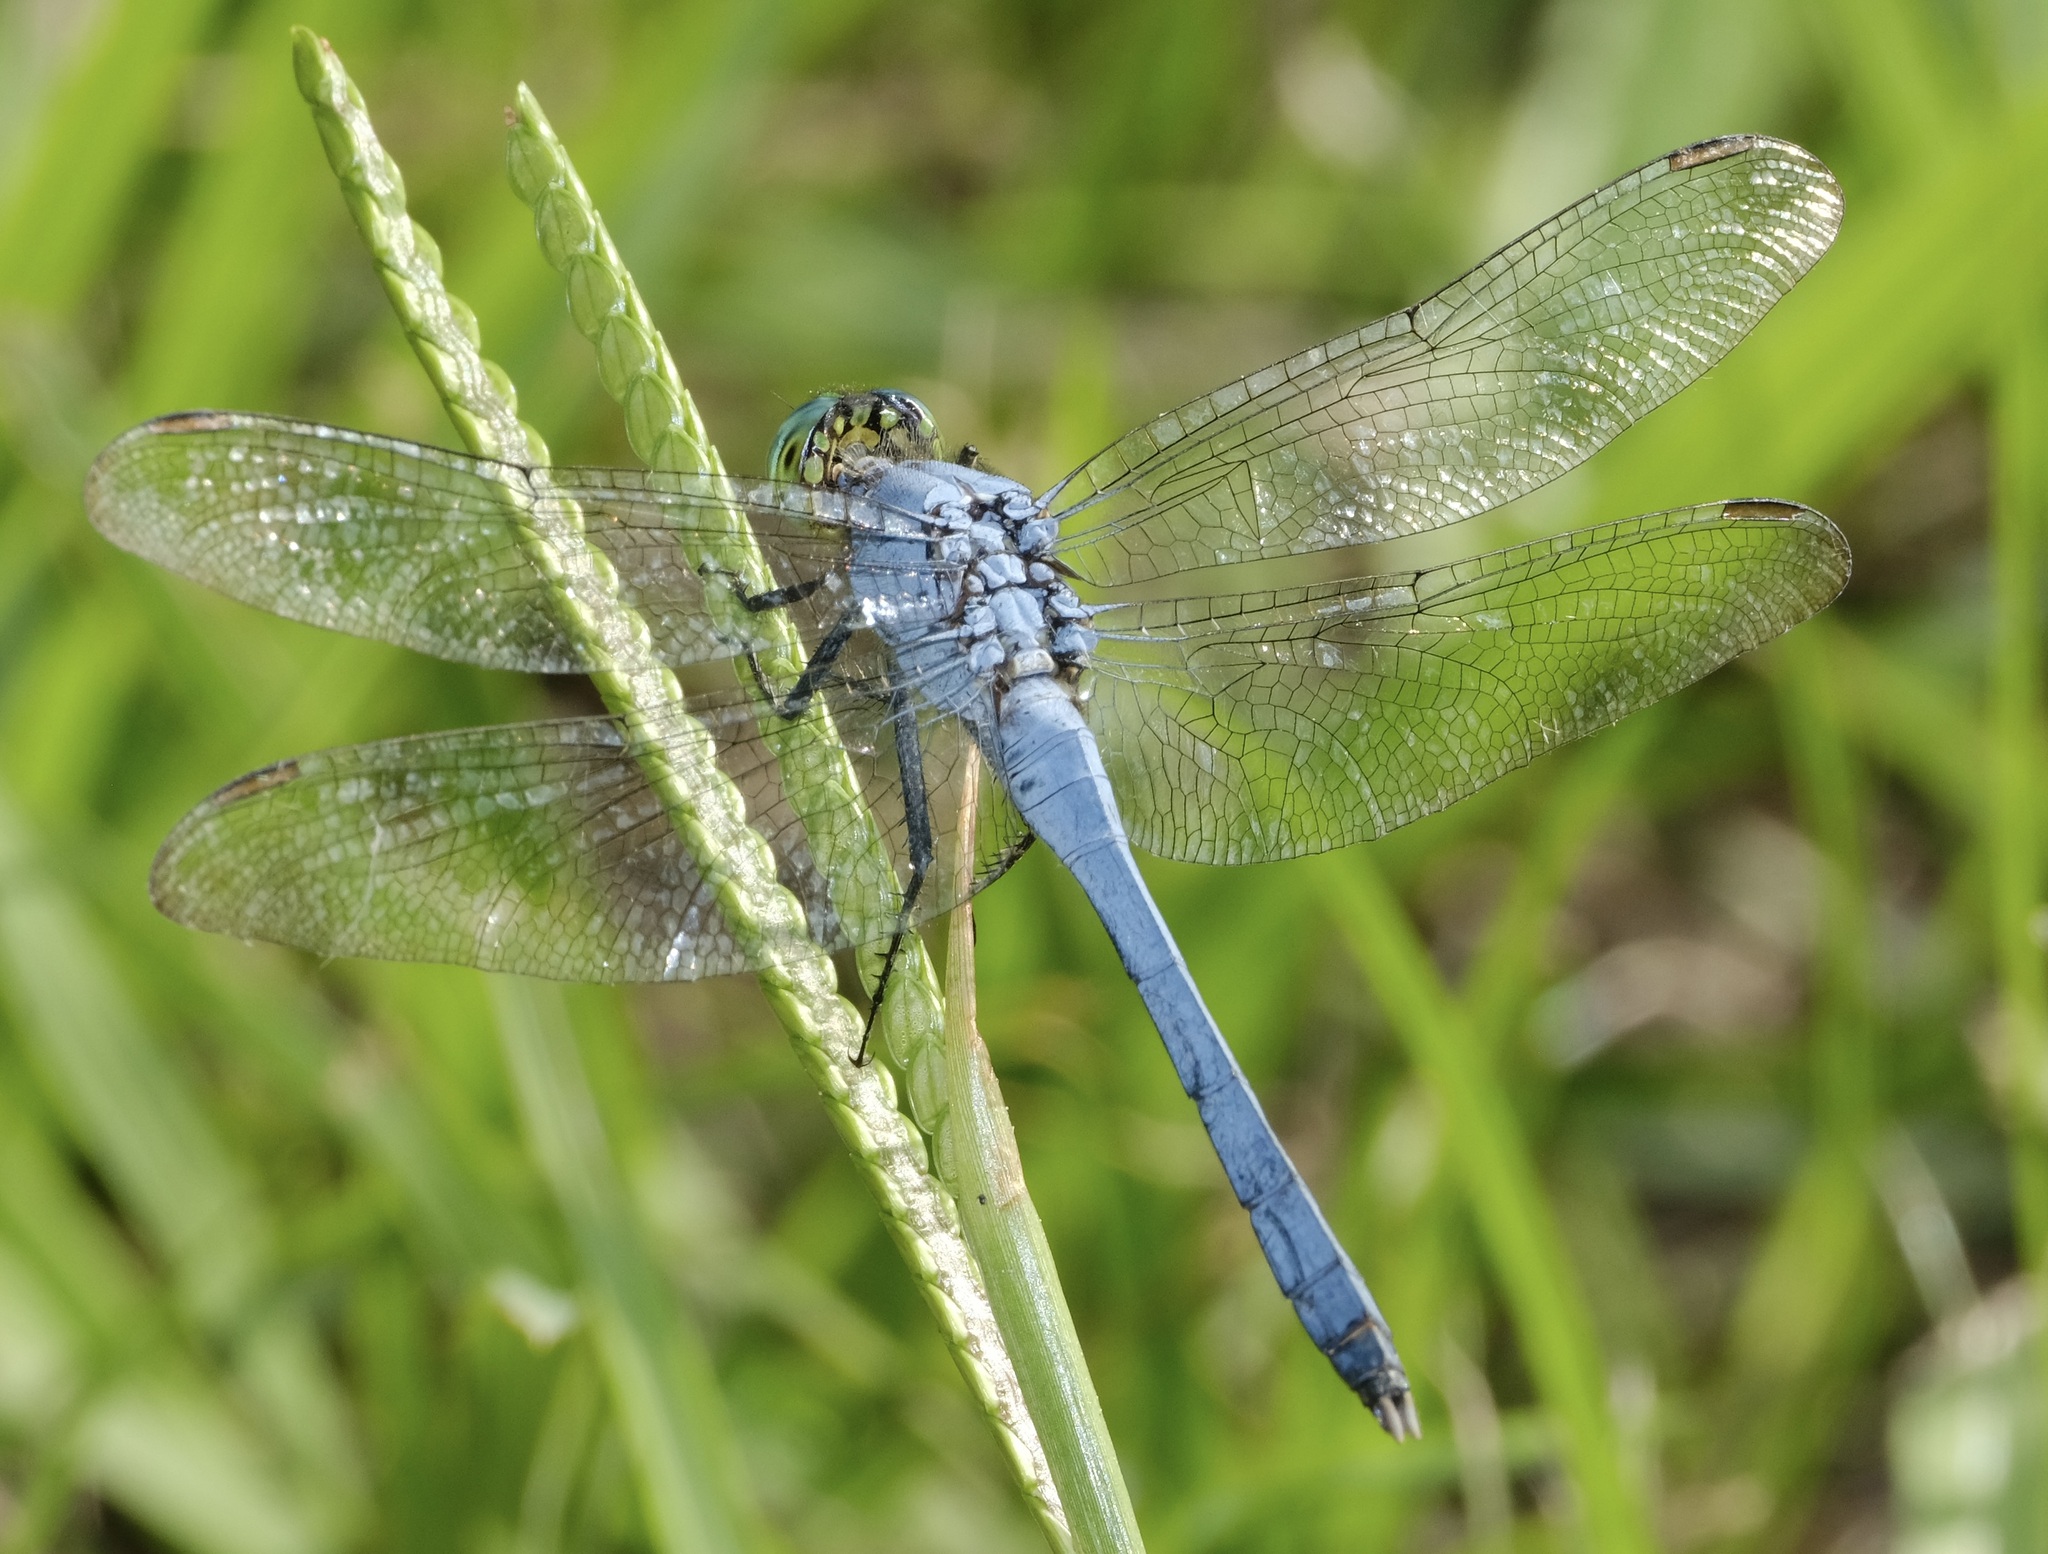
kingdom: Animalia
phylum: Arthropoda
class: Insecta
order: Odonata
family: Libellulidae
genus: Erythemis
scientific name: Erythemis simplicicollis
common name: Eastern pondhawk
